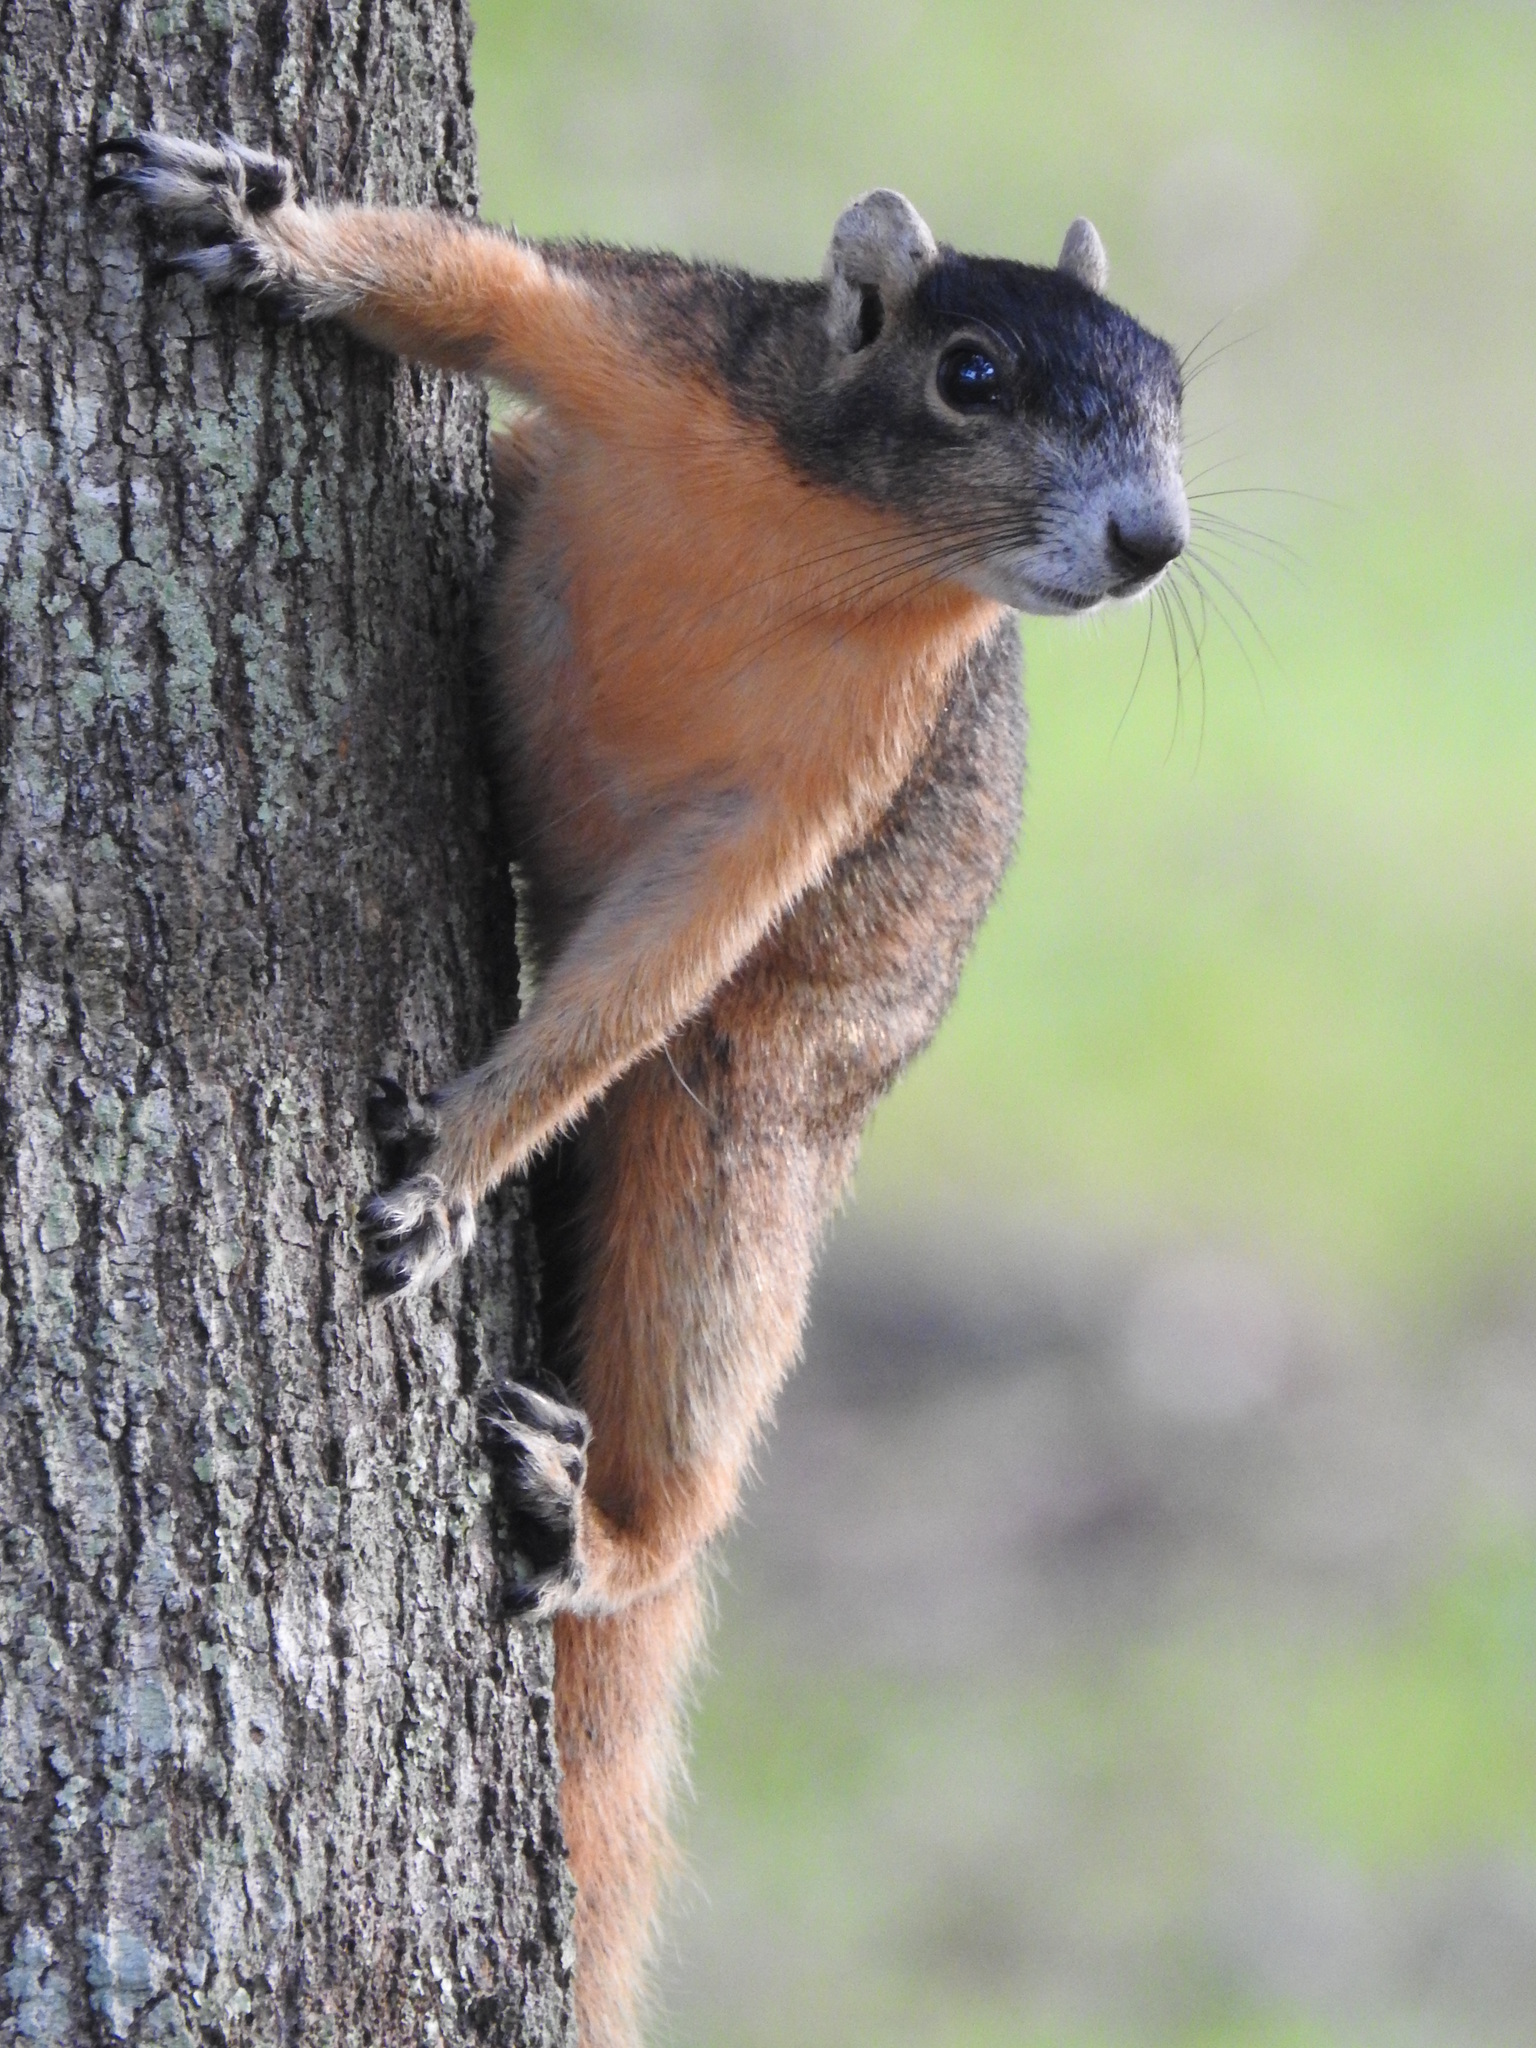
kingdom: Animalia
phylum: Chordata
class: Mammalia
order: Rodentia
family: Sciuridae
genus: Sciurus
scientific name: Sciurus niger
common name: Fox squirrel
